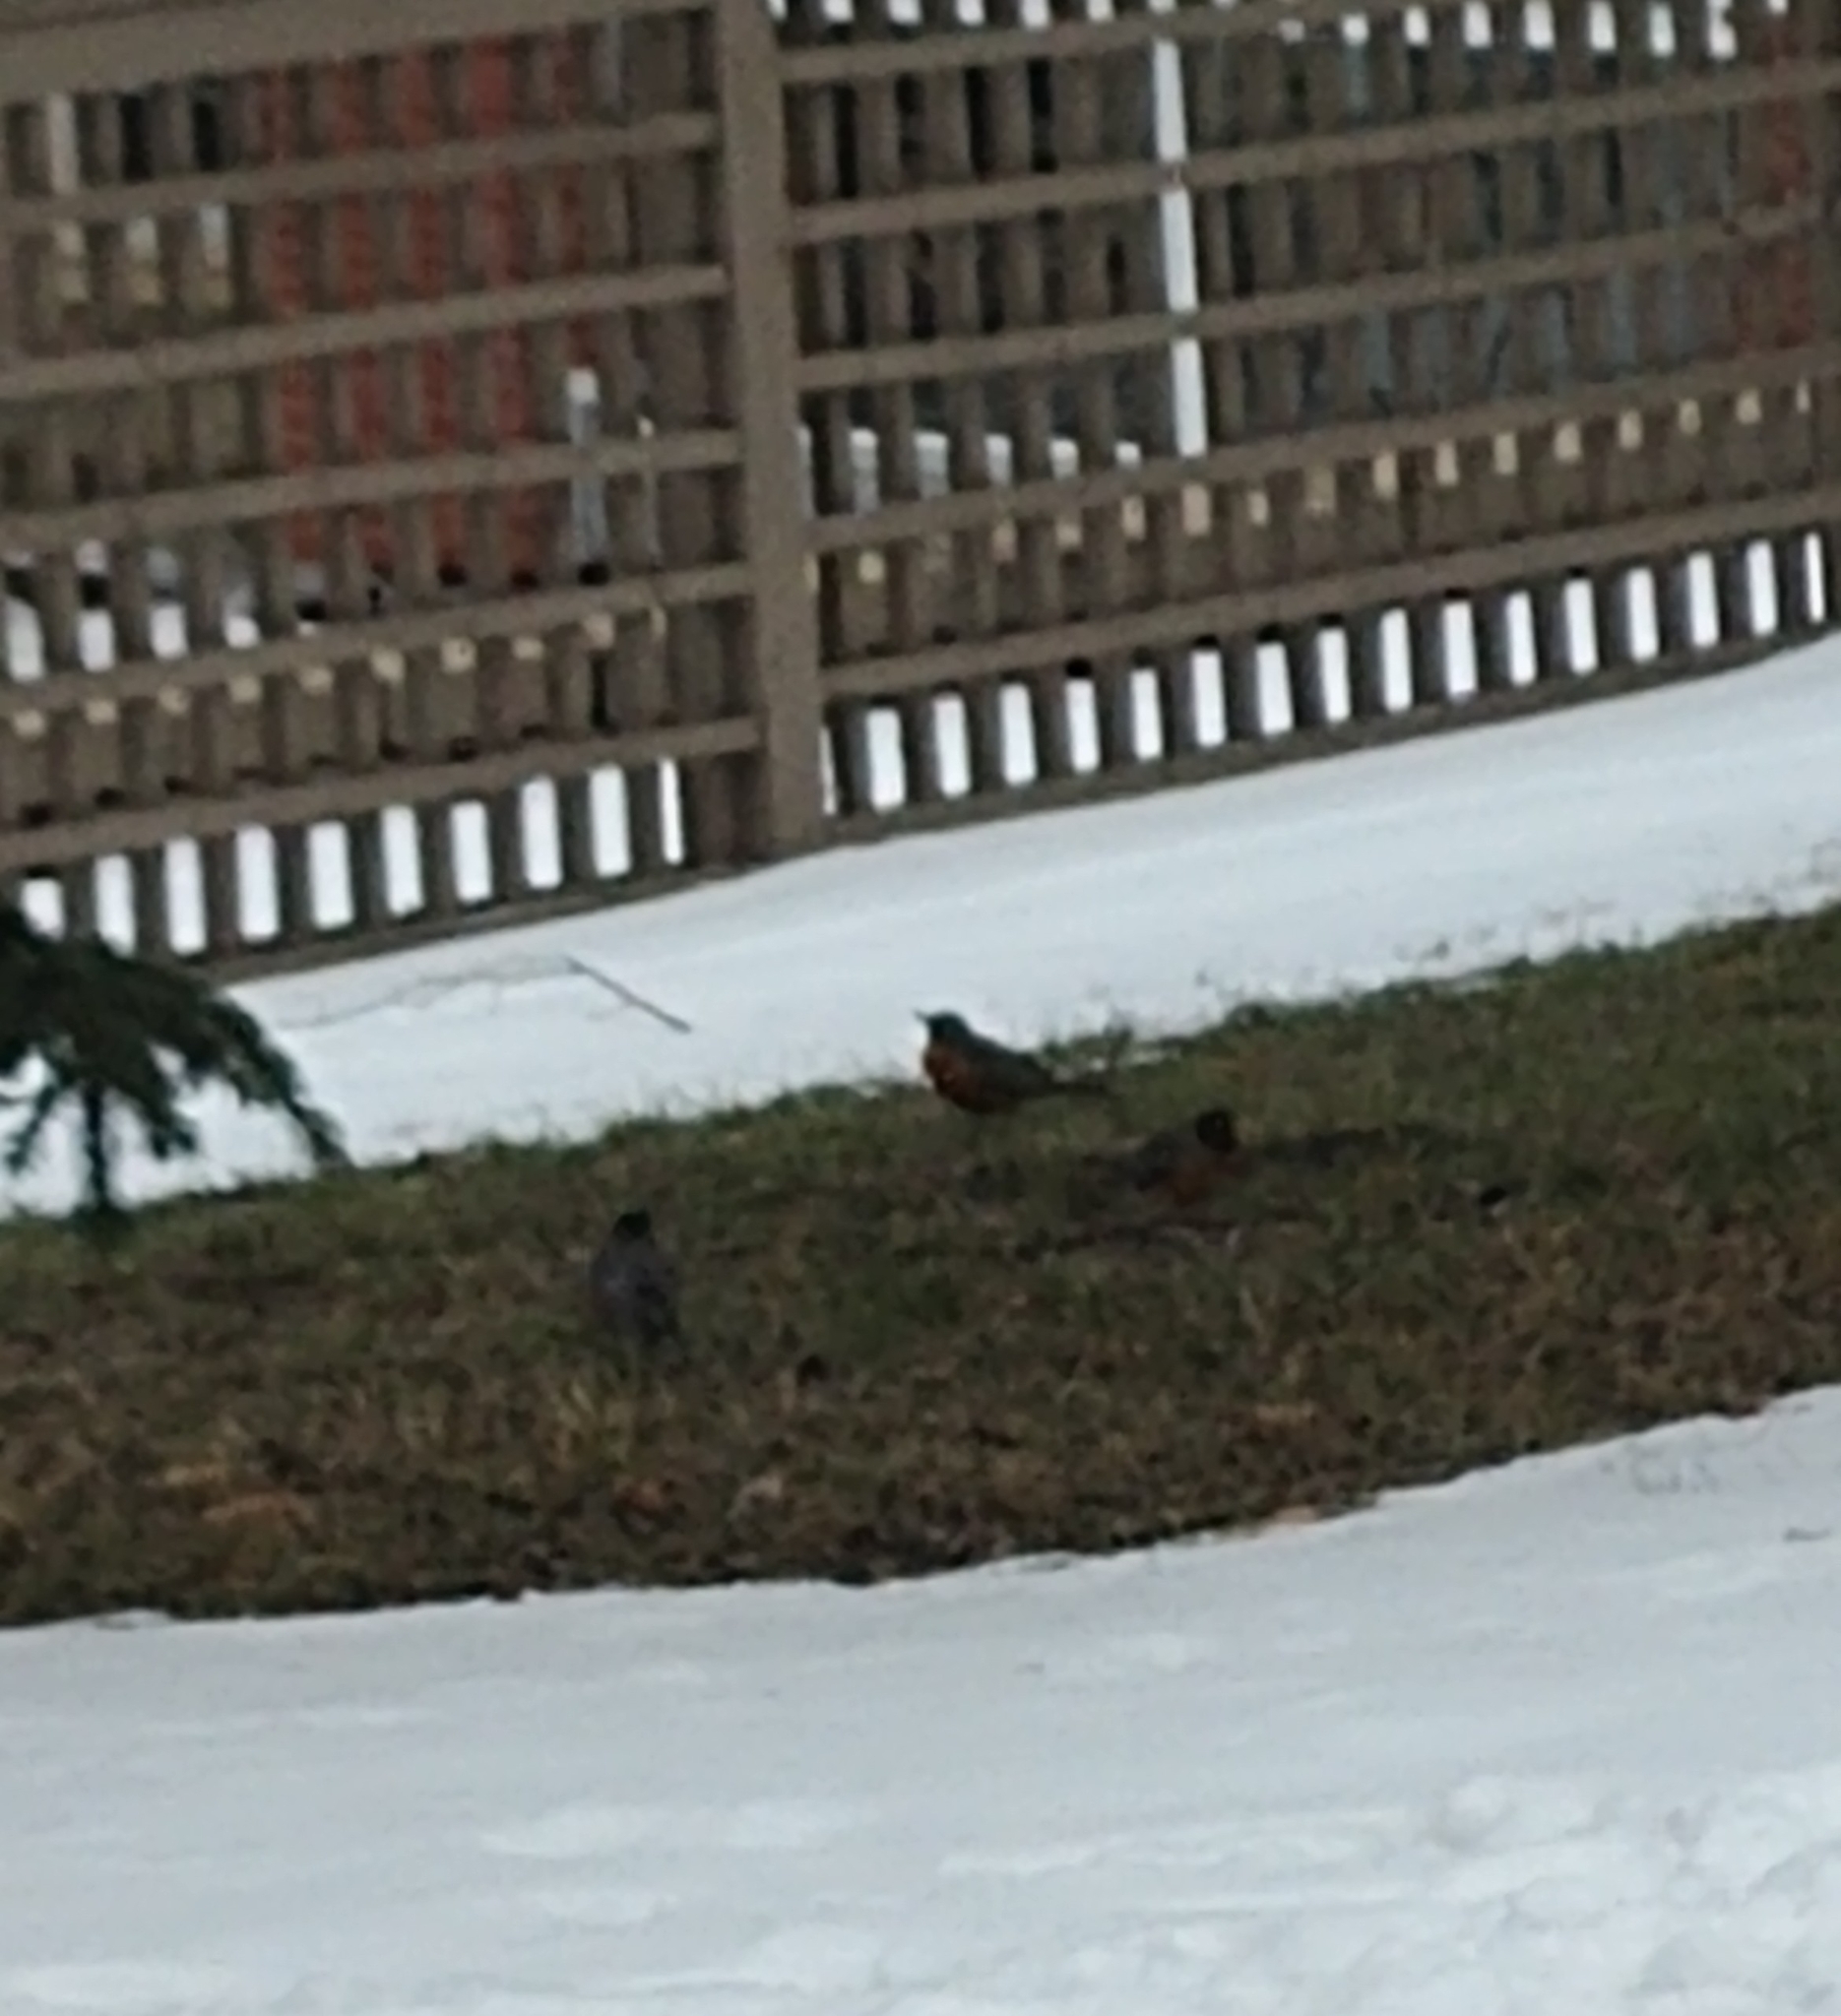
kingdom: Animalia
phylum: Chordata
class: Aves
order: Passeriformes
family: Turdidae
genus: Turdus
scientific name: Turdus migratorius
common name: American robin
